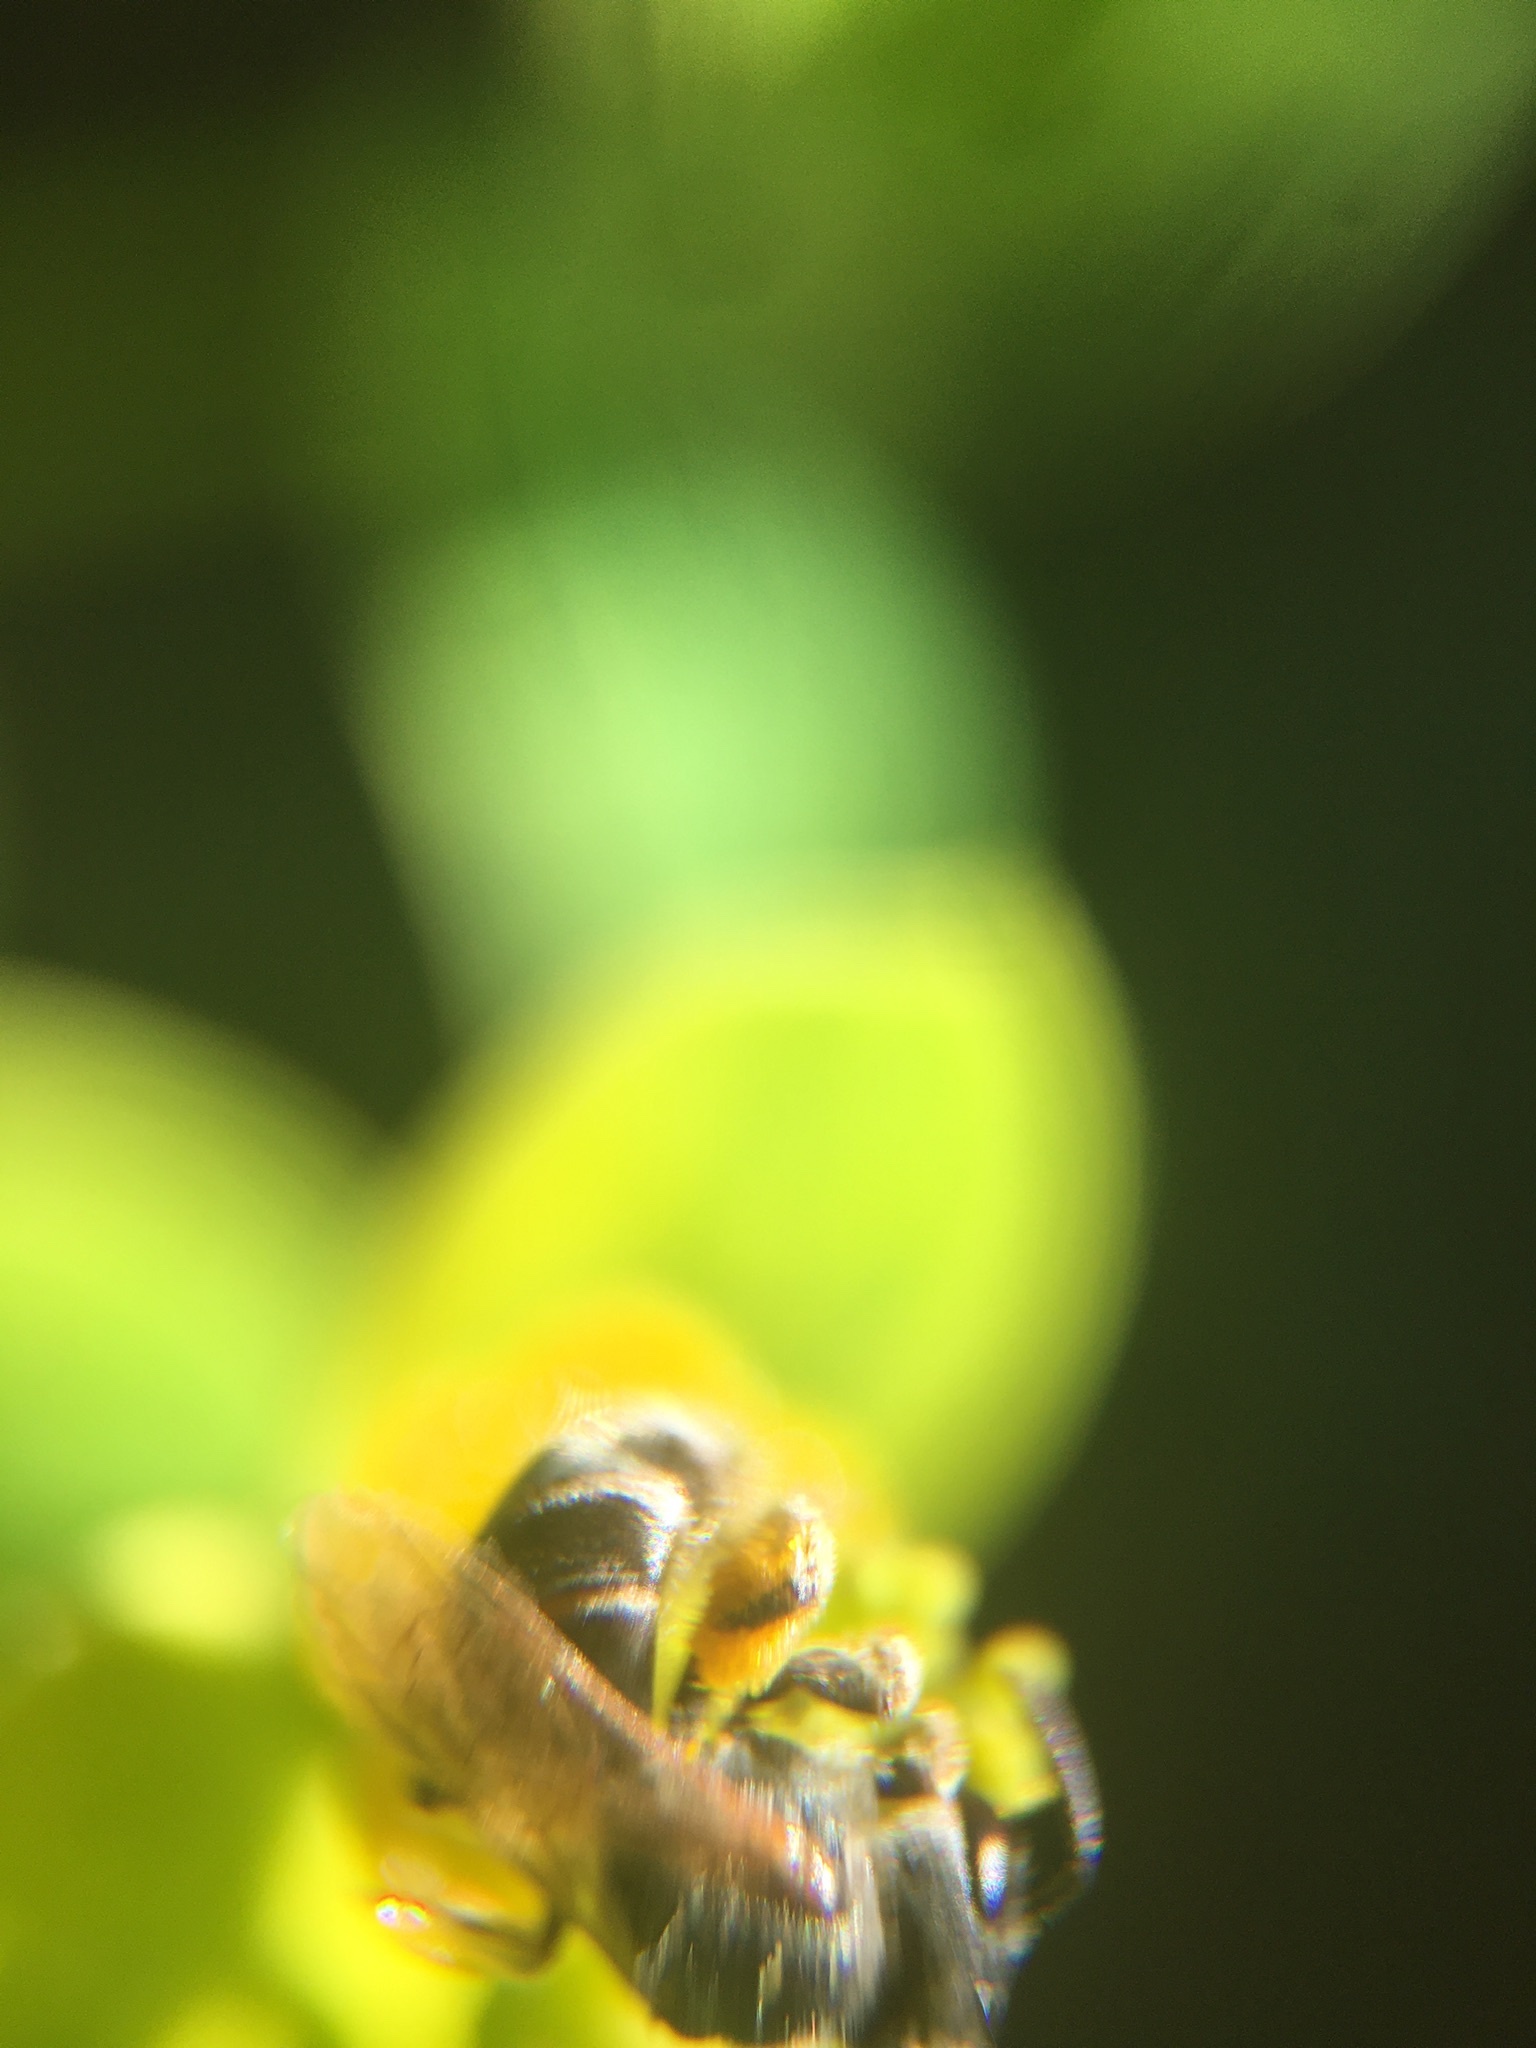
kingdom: Animalia
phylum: Arthropoda
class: Insecta
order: Hymenoptera
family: Halictidae
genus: Halictus
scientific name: Halictus tripartitus
